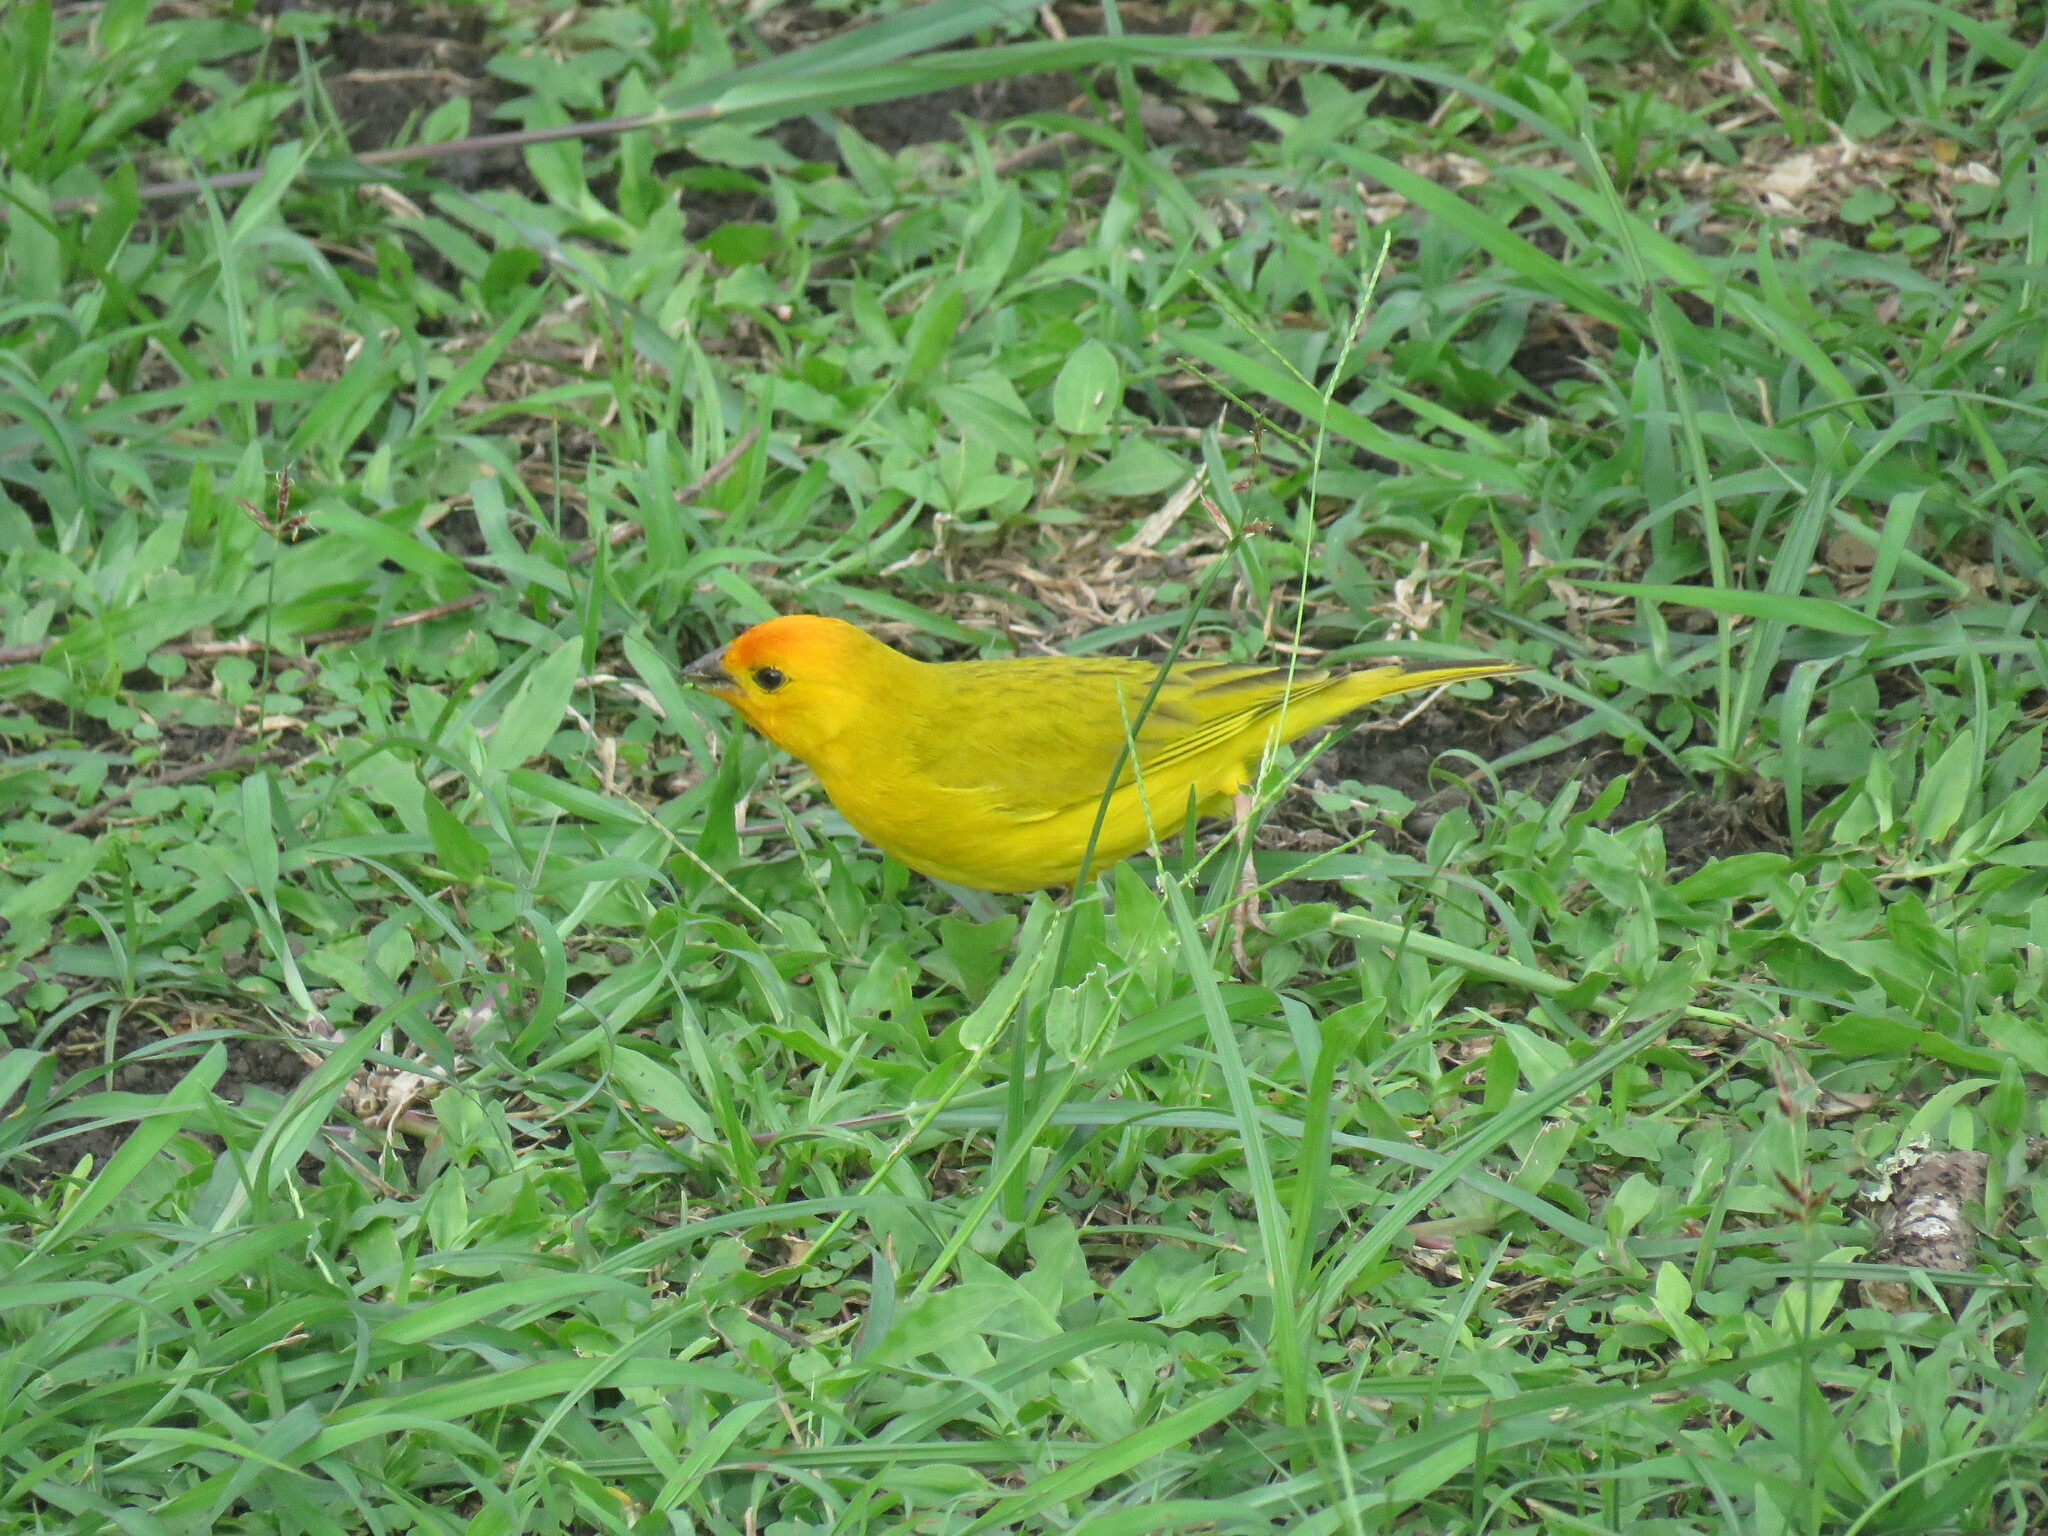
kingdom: Animalia
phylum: Chordata
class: Aves
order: Passeriformes
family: Thraupidae
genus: Sicalis
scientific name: Sicalis flaveola
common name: Saffron finch
